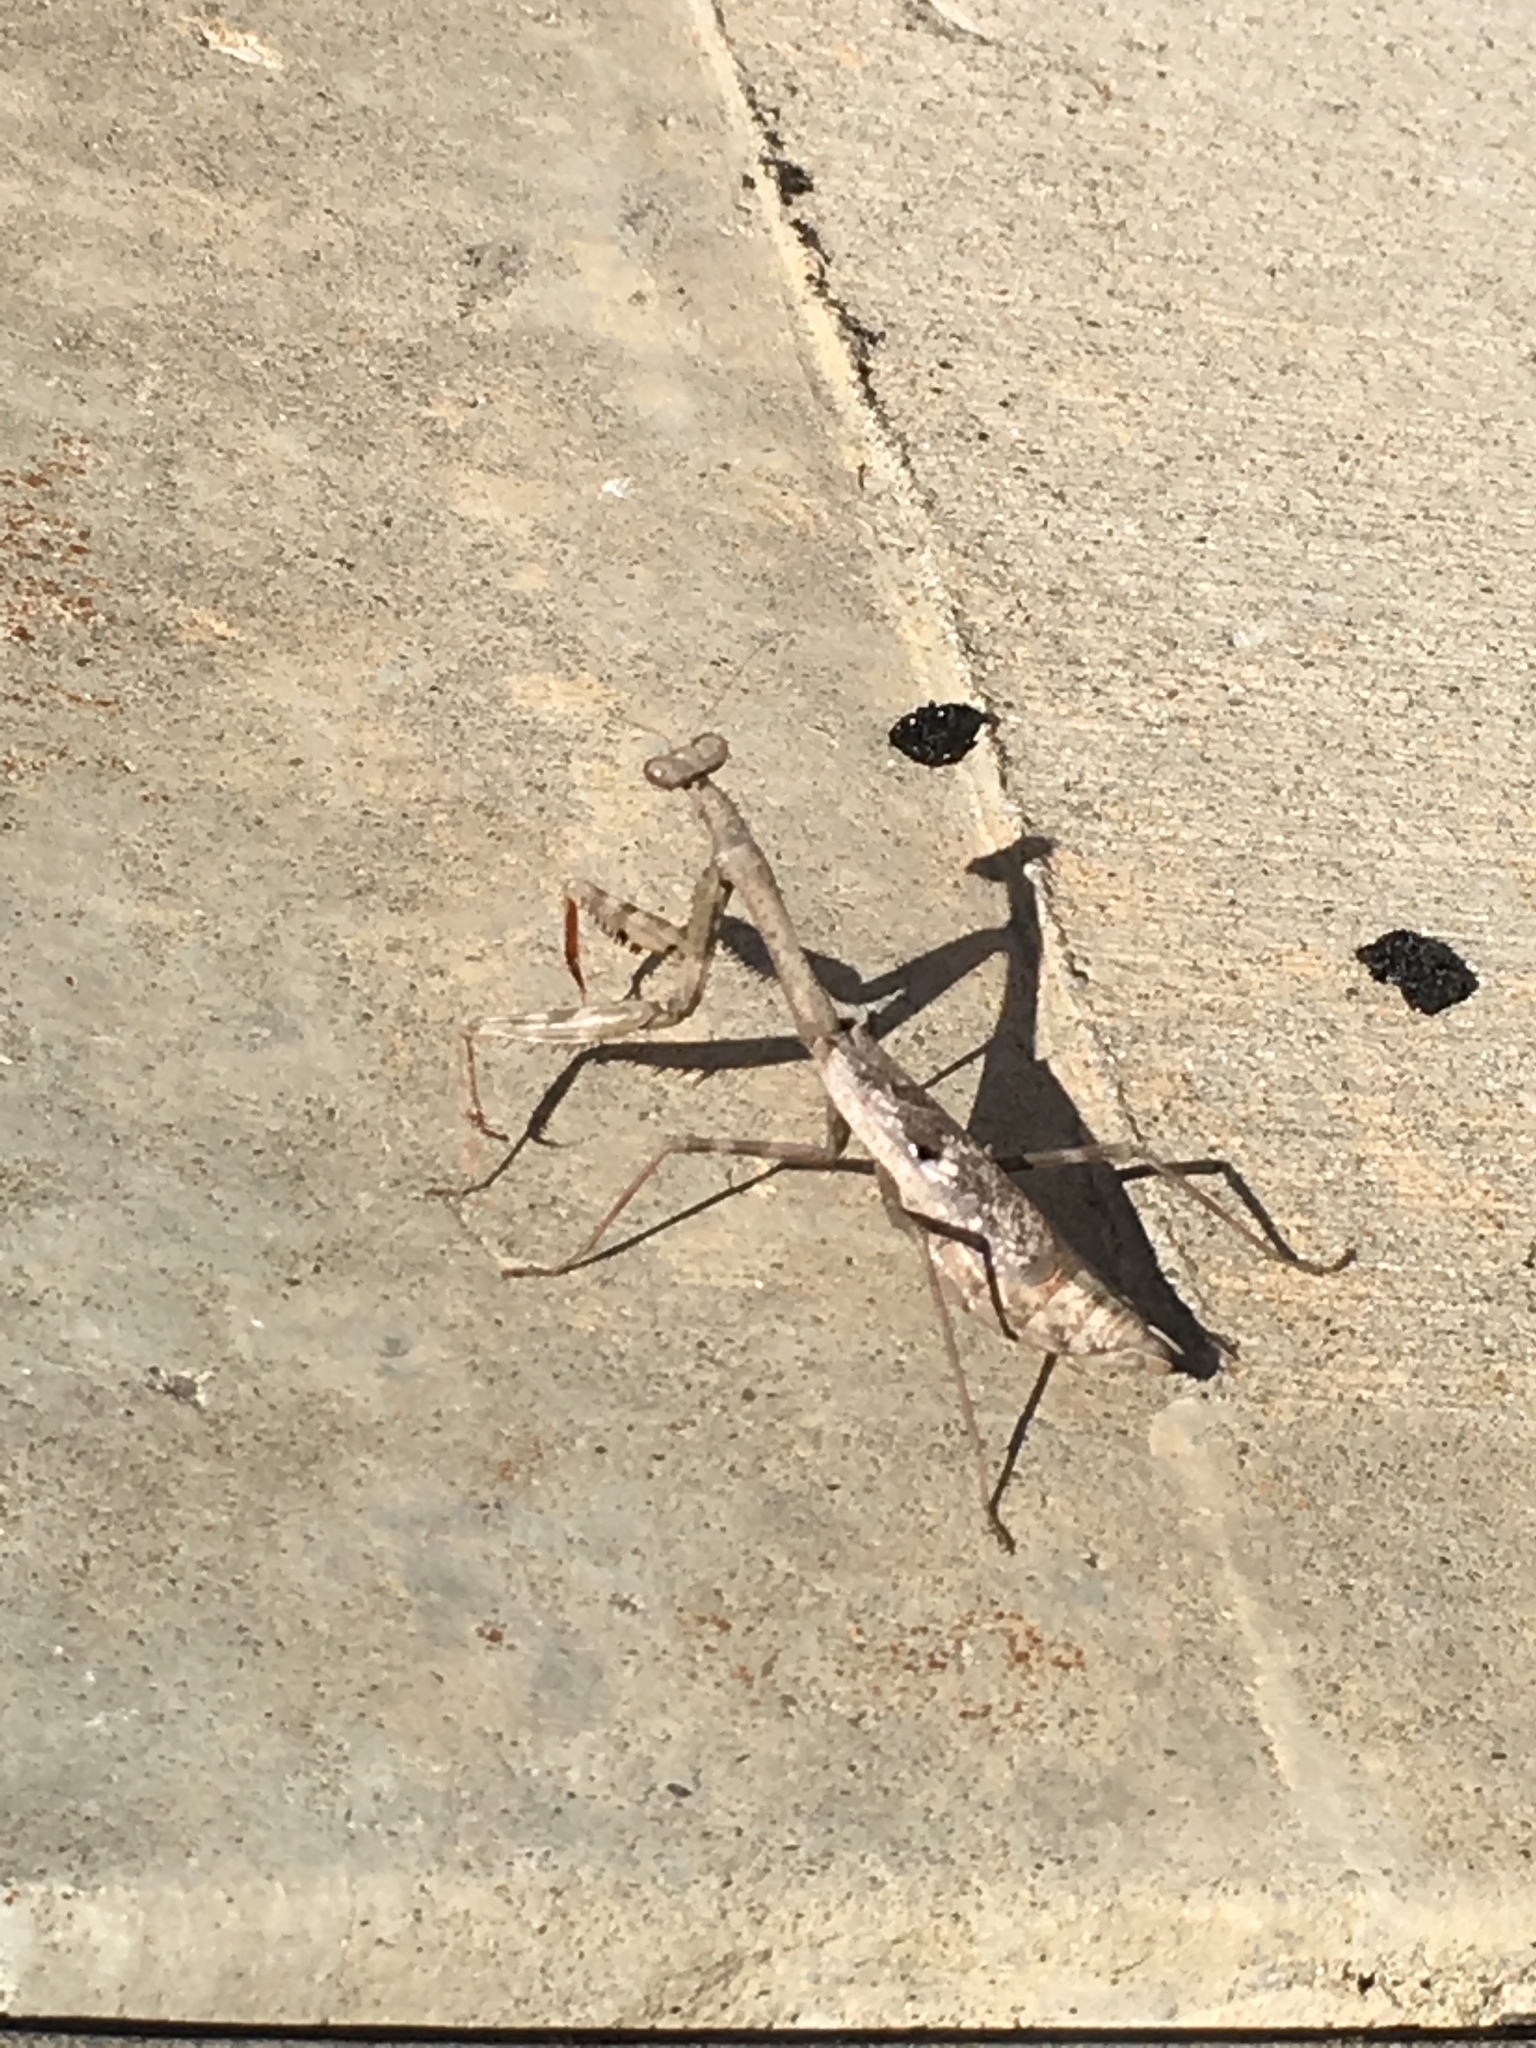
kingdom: Animalia
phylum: Arthropoda
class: Insecta
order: Mantodea
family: Mantidae
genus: Stagmomantis
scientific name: Stagmomantis carolina
